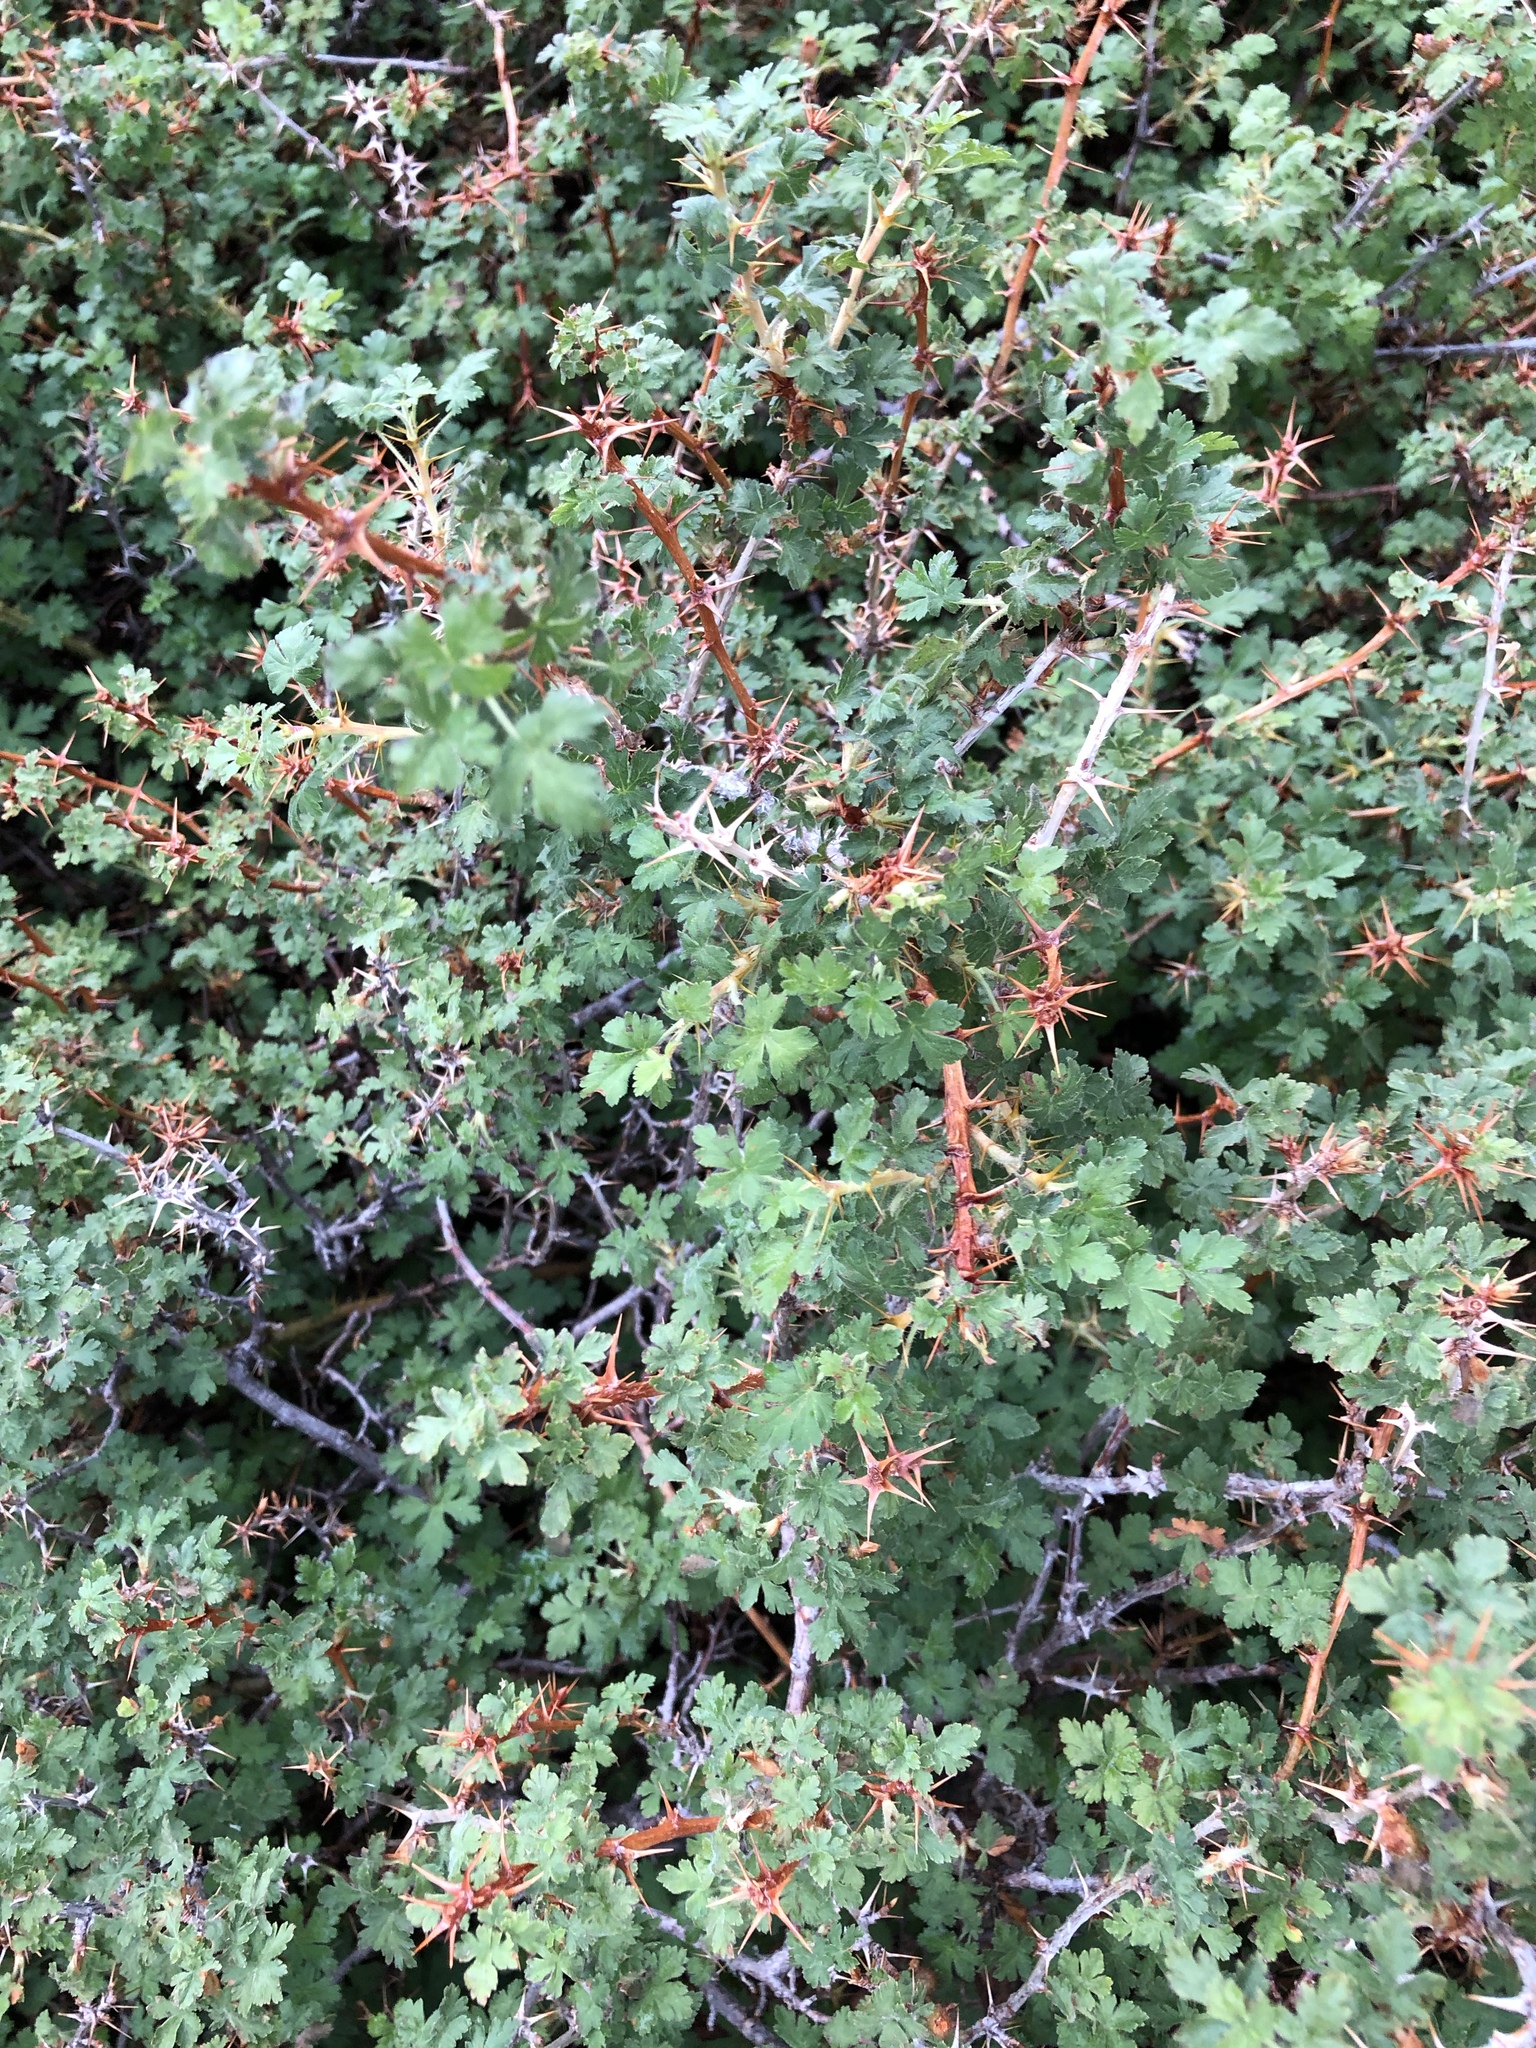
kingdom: Plantae
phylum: Tracheophyta
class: Magnoliopsida
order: Saxifragales
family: Grossulariaceae
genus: Ribes
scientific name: Ribes montigenum
